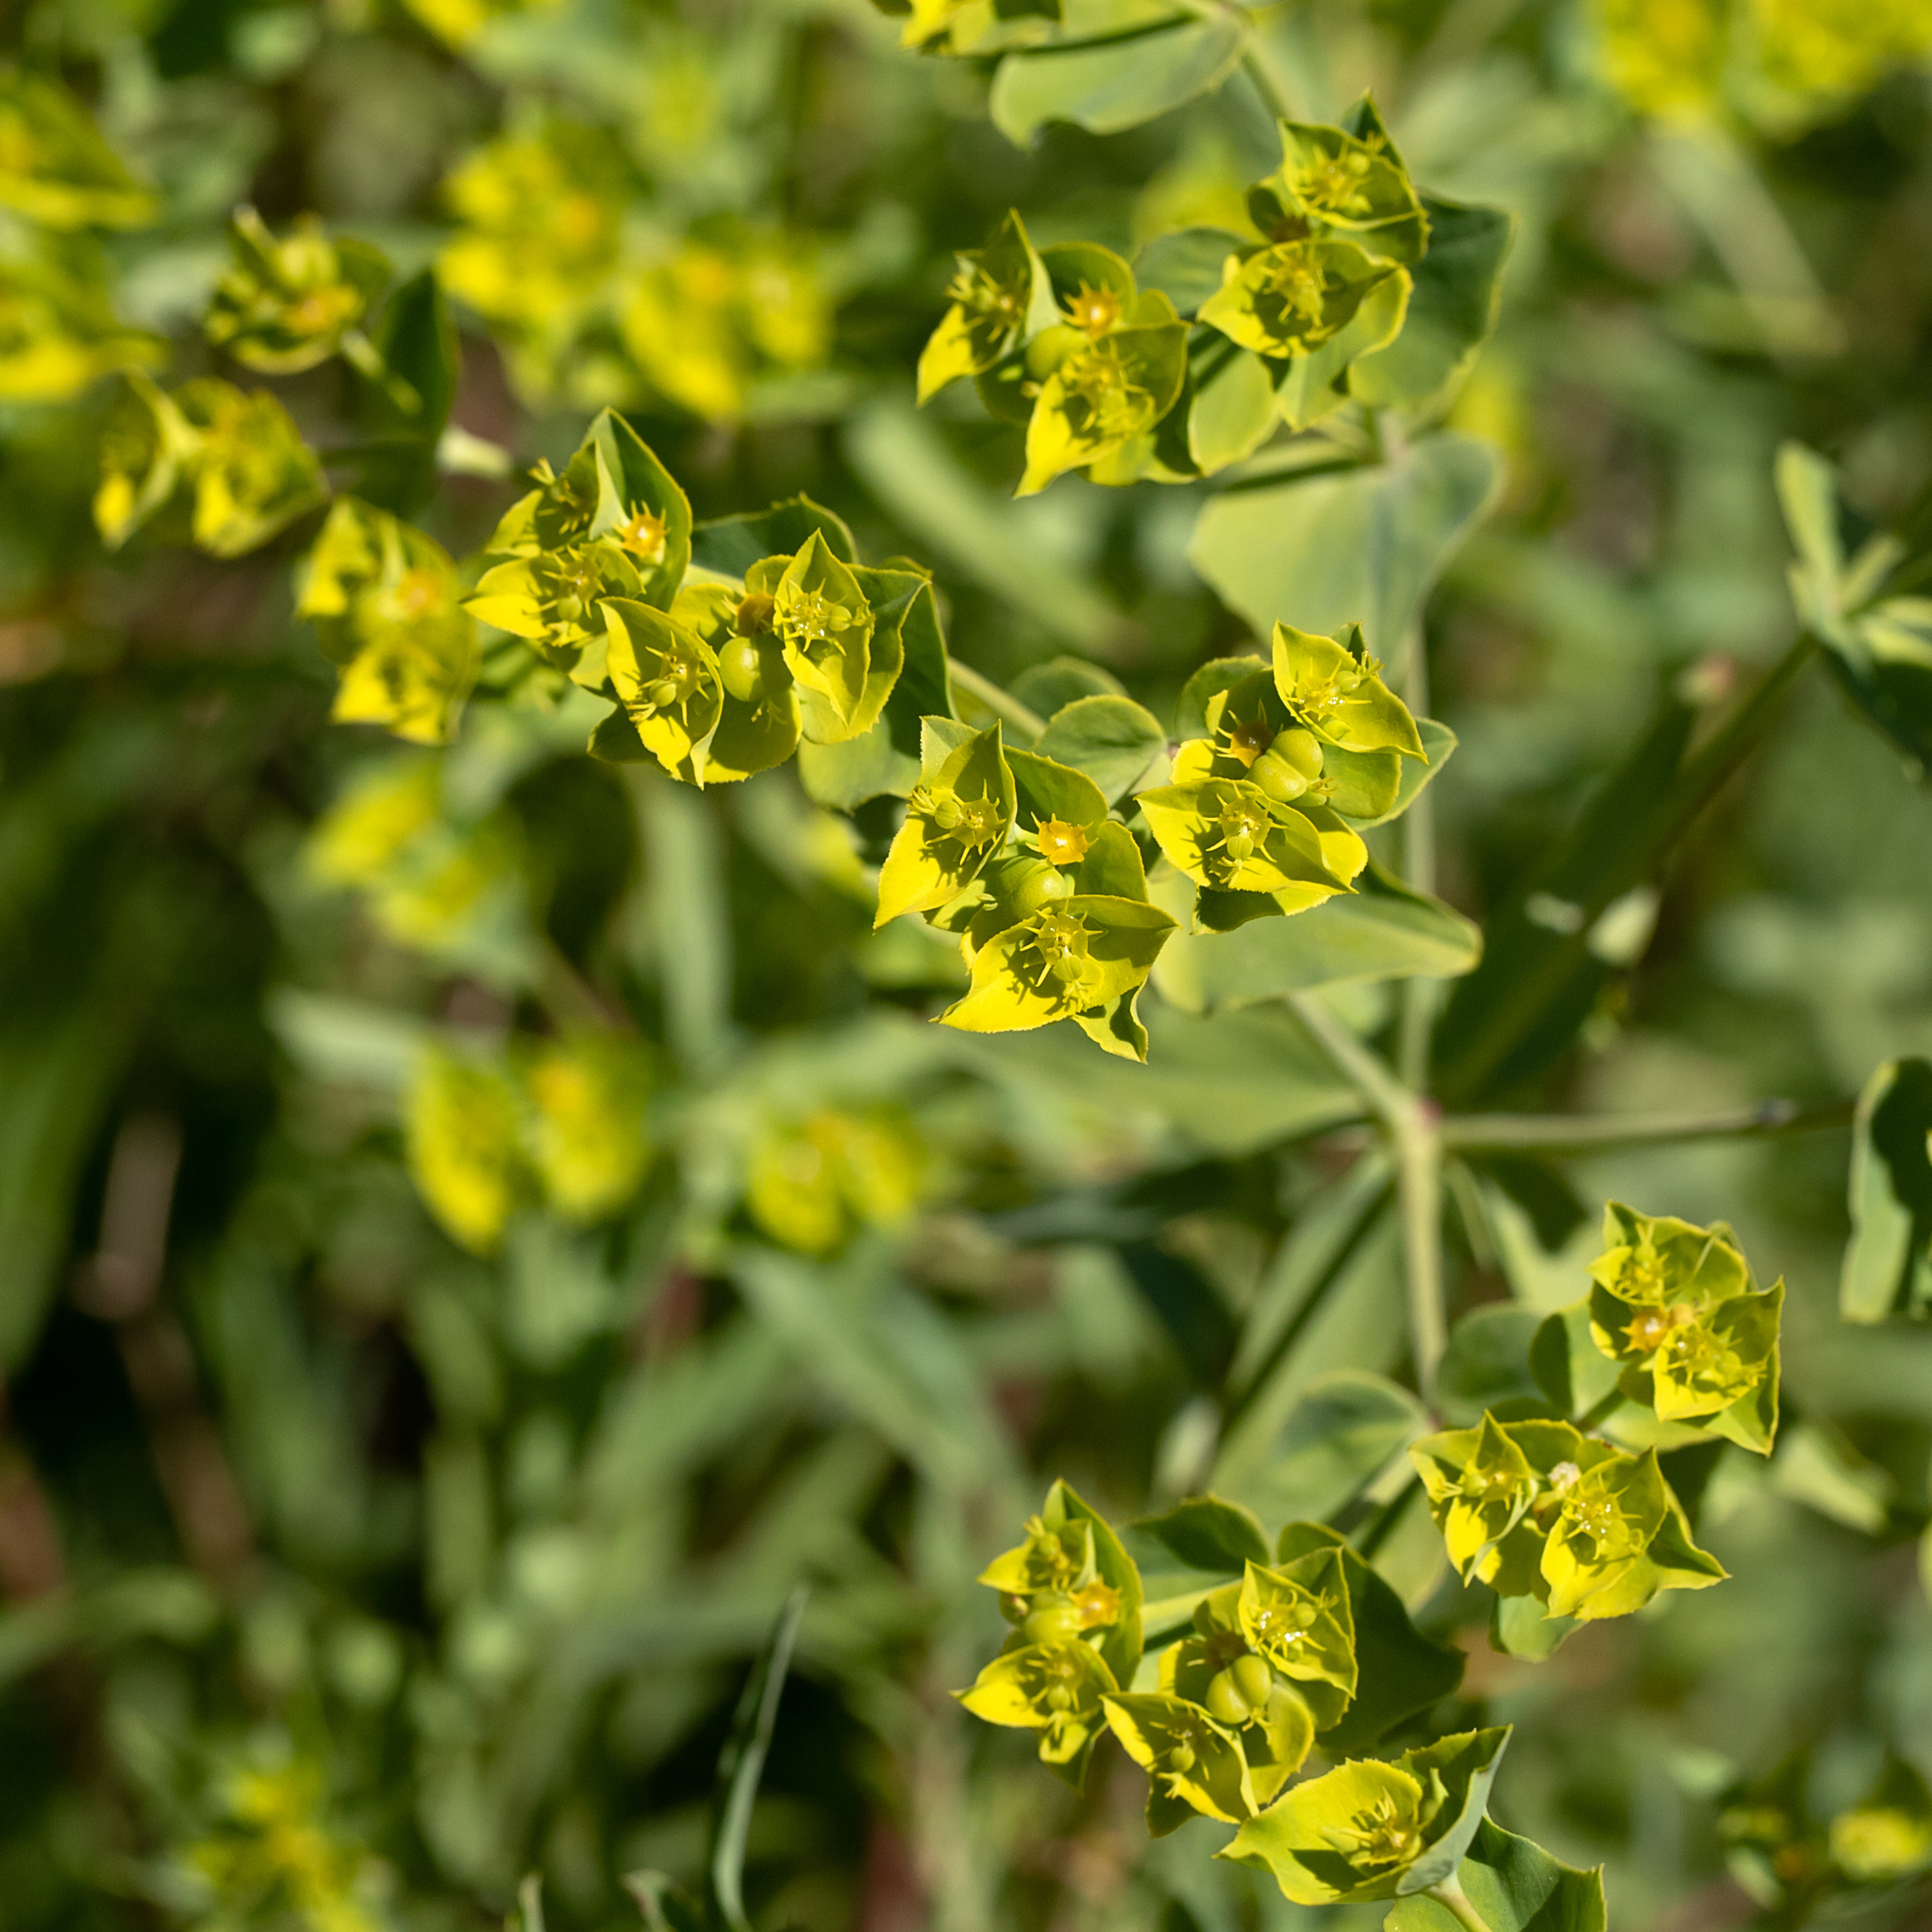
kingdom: Plantae
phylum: Tracheophyta
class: Magnoliopsida
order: Malpighiales
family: Euphorbiaceae
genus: Euphorbia
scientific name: Euphorbia terracina
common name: Geraldton carnation weed
